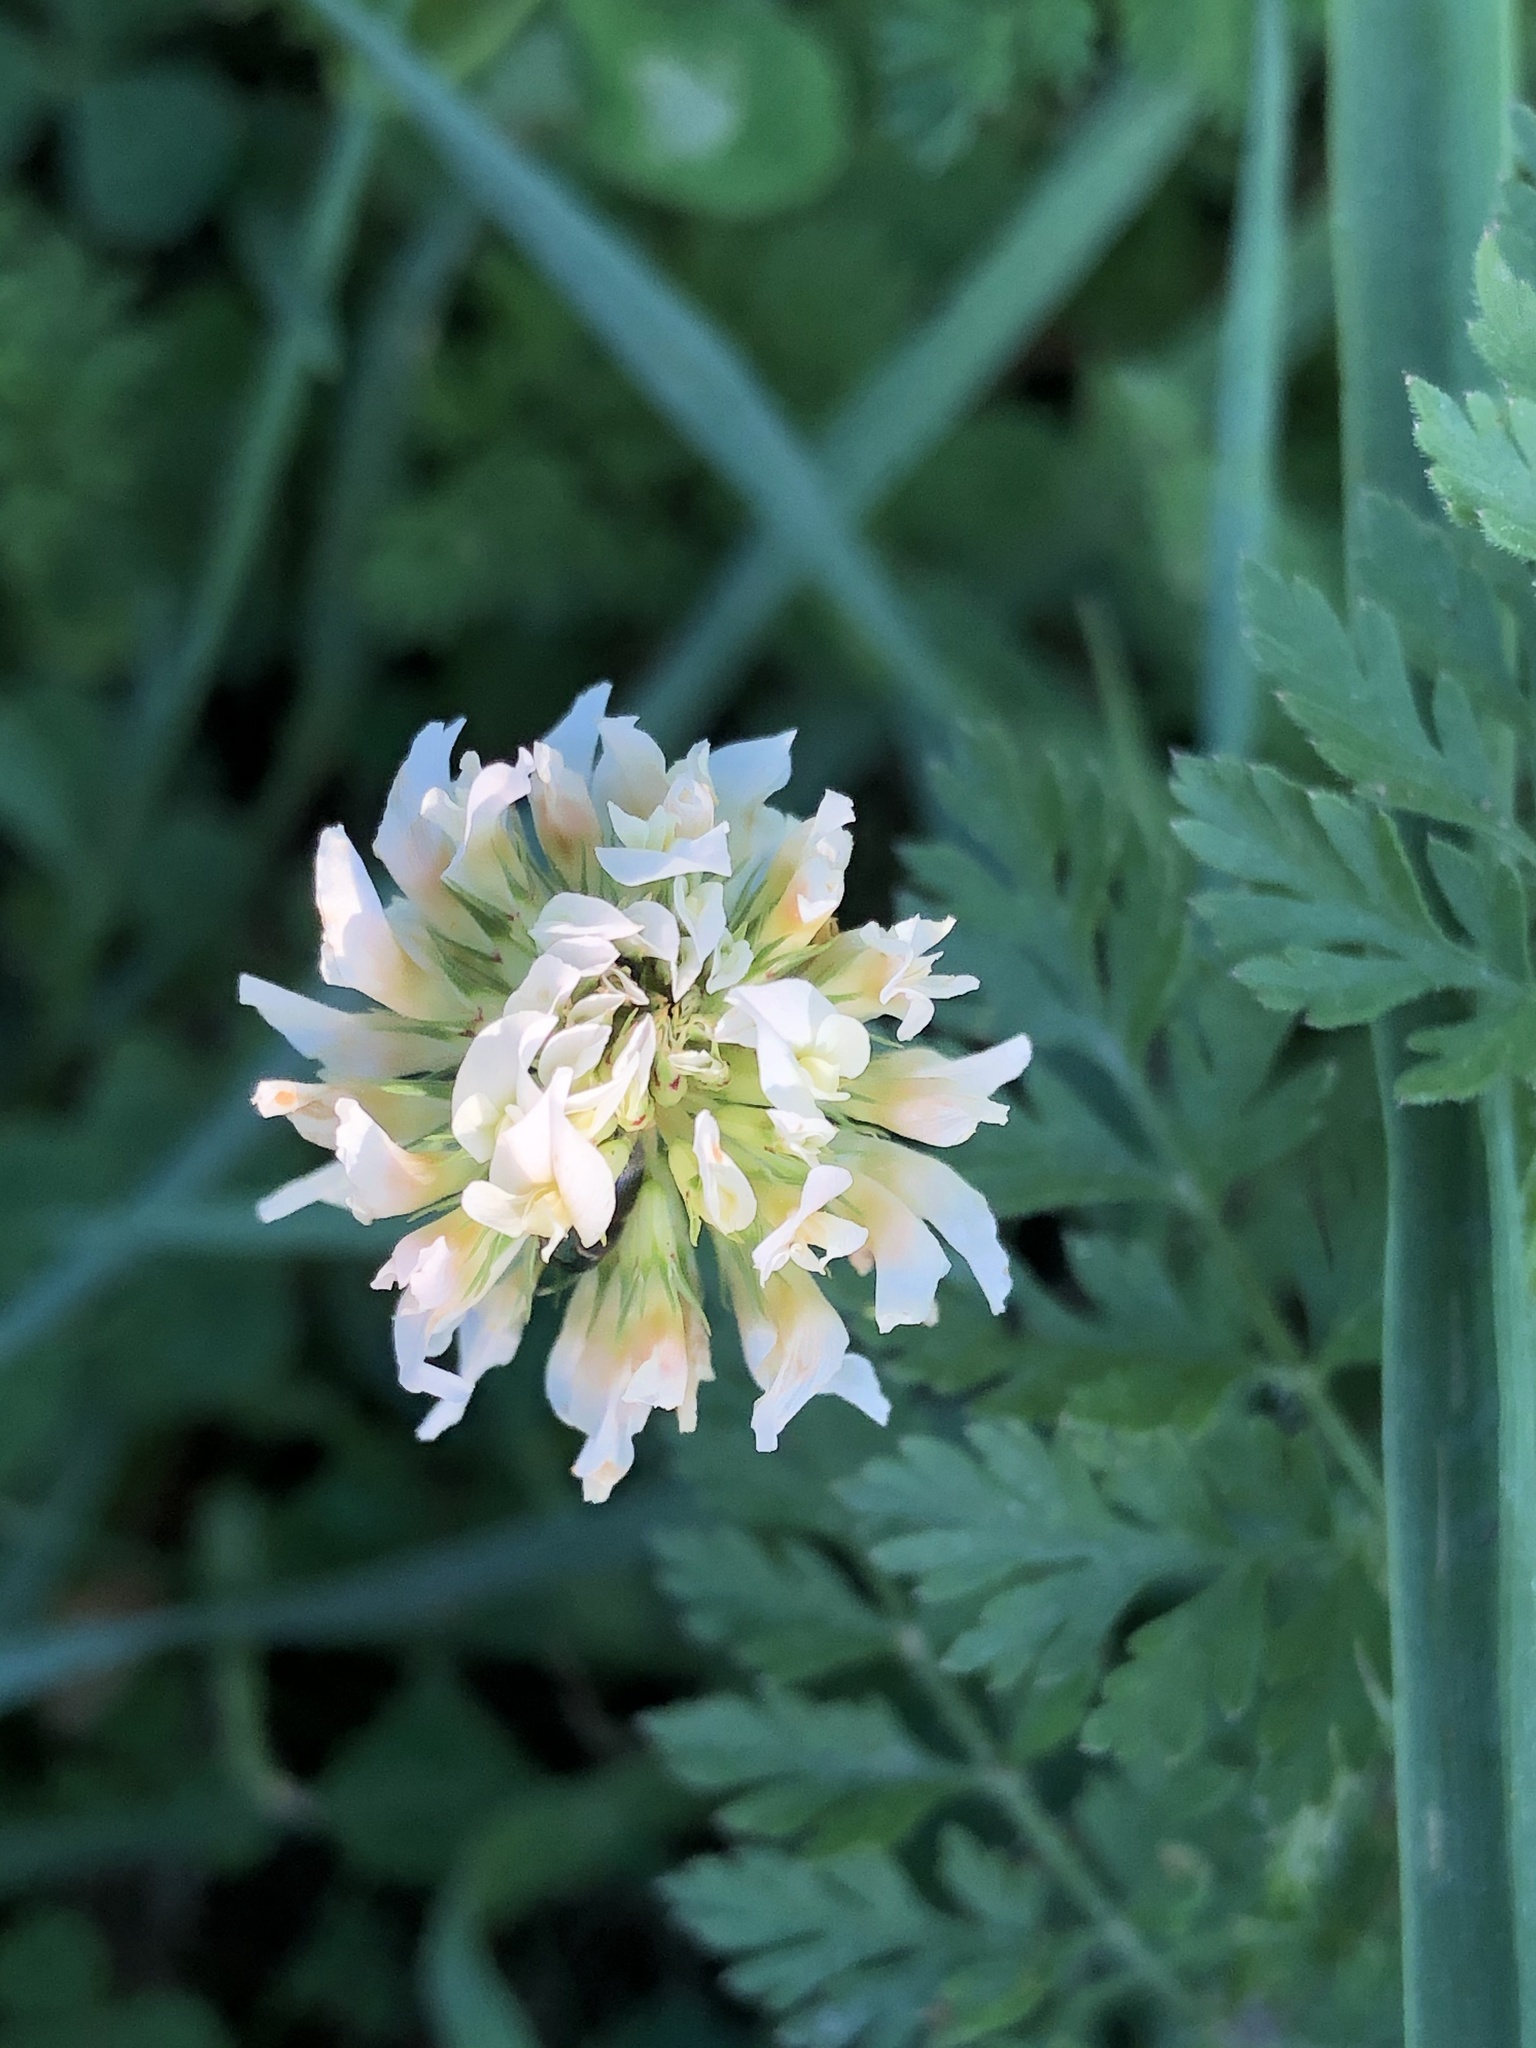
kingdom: Plantae
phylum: Tracheophyta
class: Magnoliopsida
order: Fabales
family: Fabaceae
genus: Trifolium
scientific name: Trifolium repens
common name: White clover
